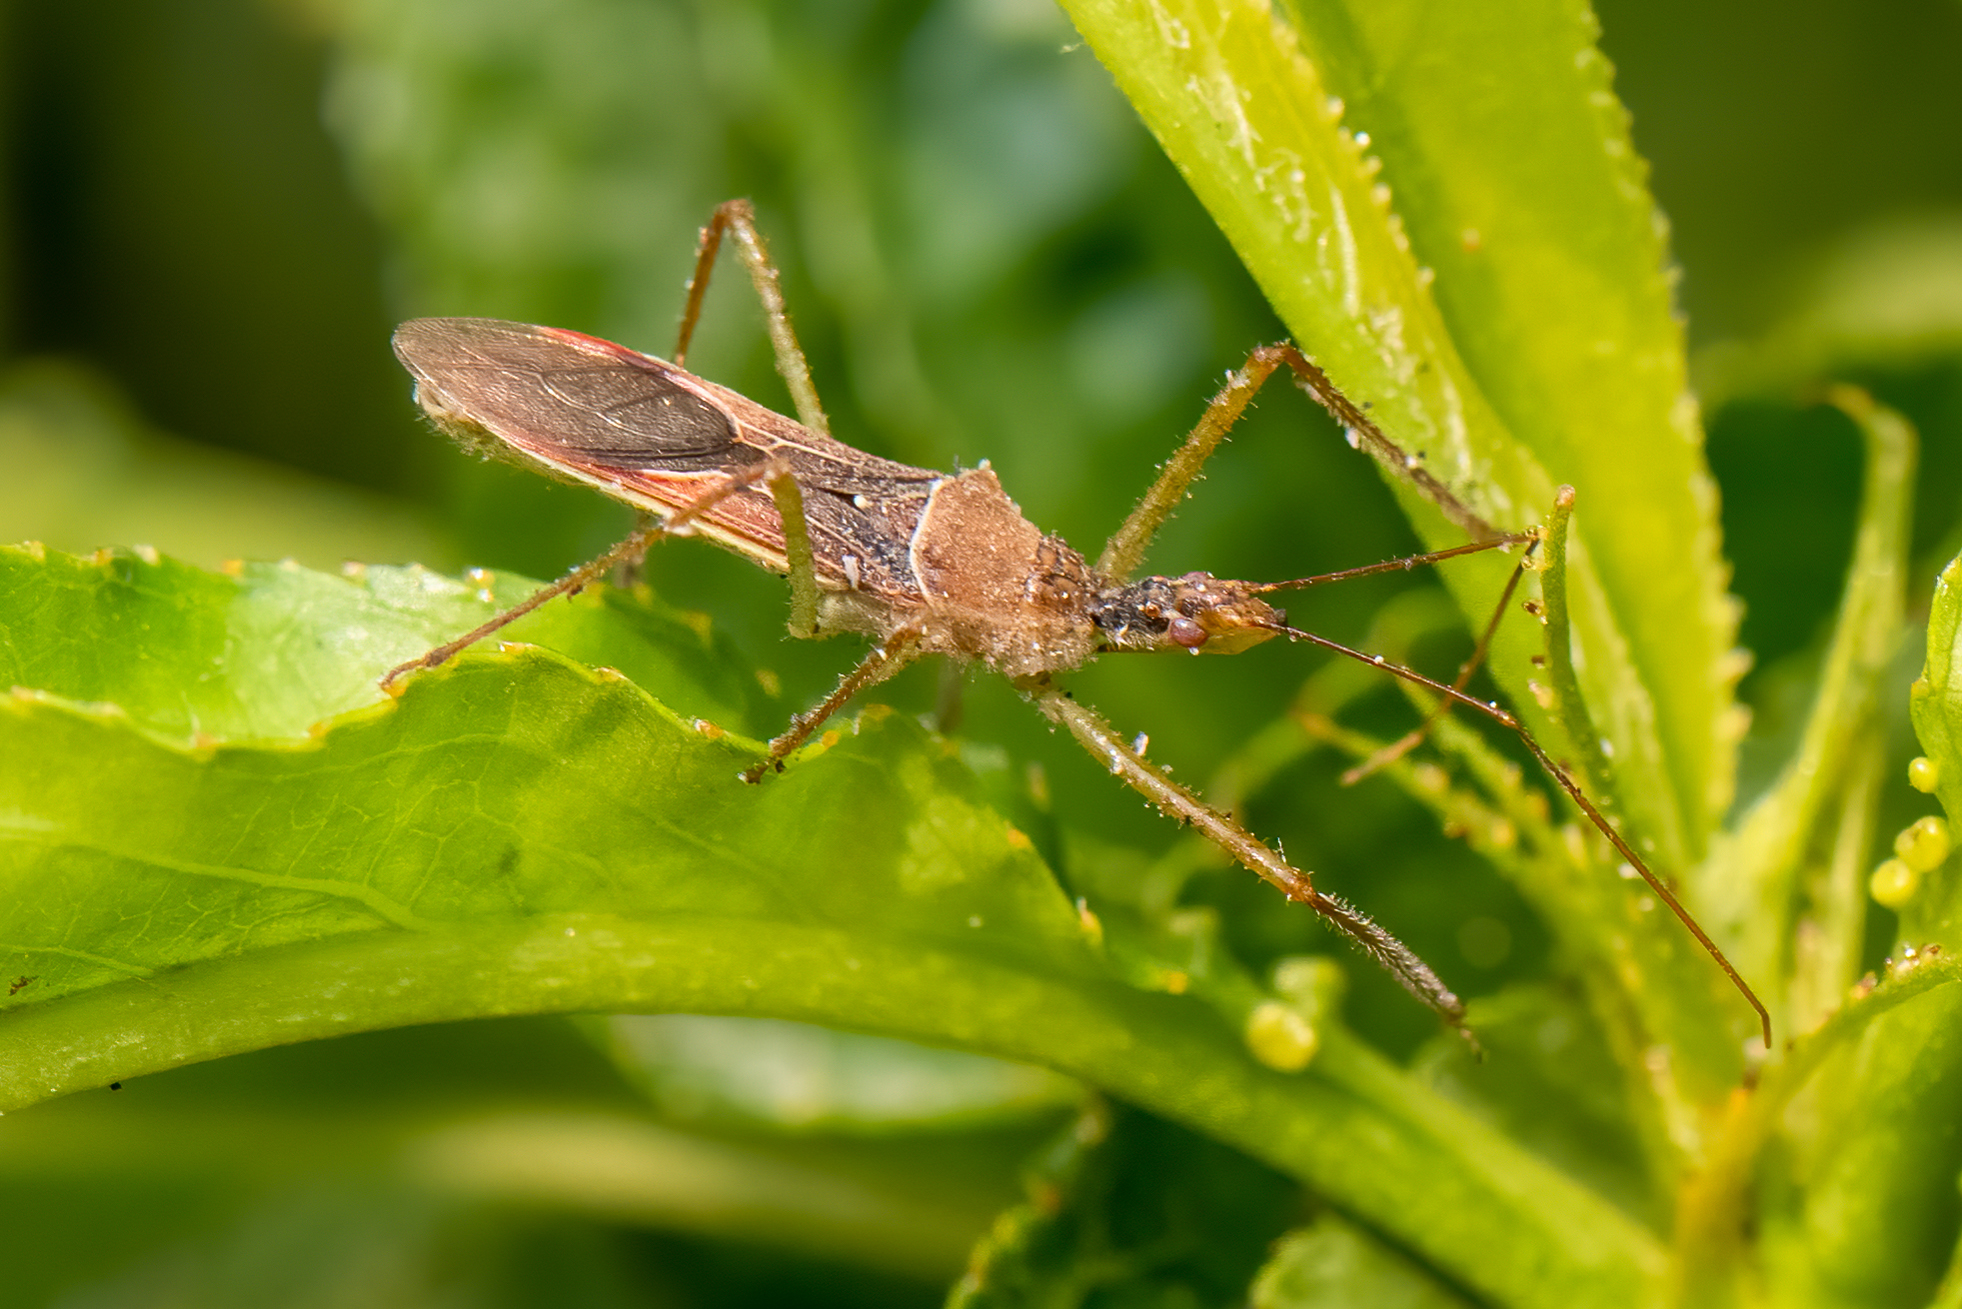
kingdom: Animalia
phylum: Arthropoda
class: Insecta
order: Hemiptera
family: Reduviidae
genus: Zelus
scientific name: Zelus renardii
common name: Assassin bug
